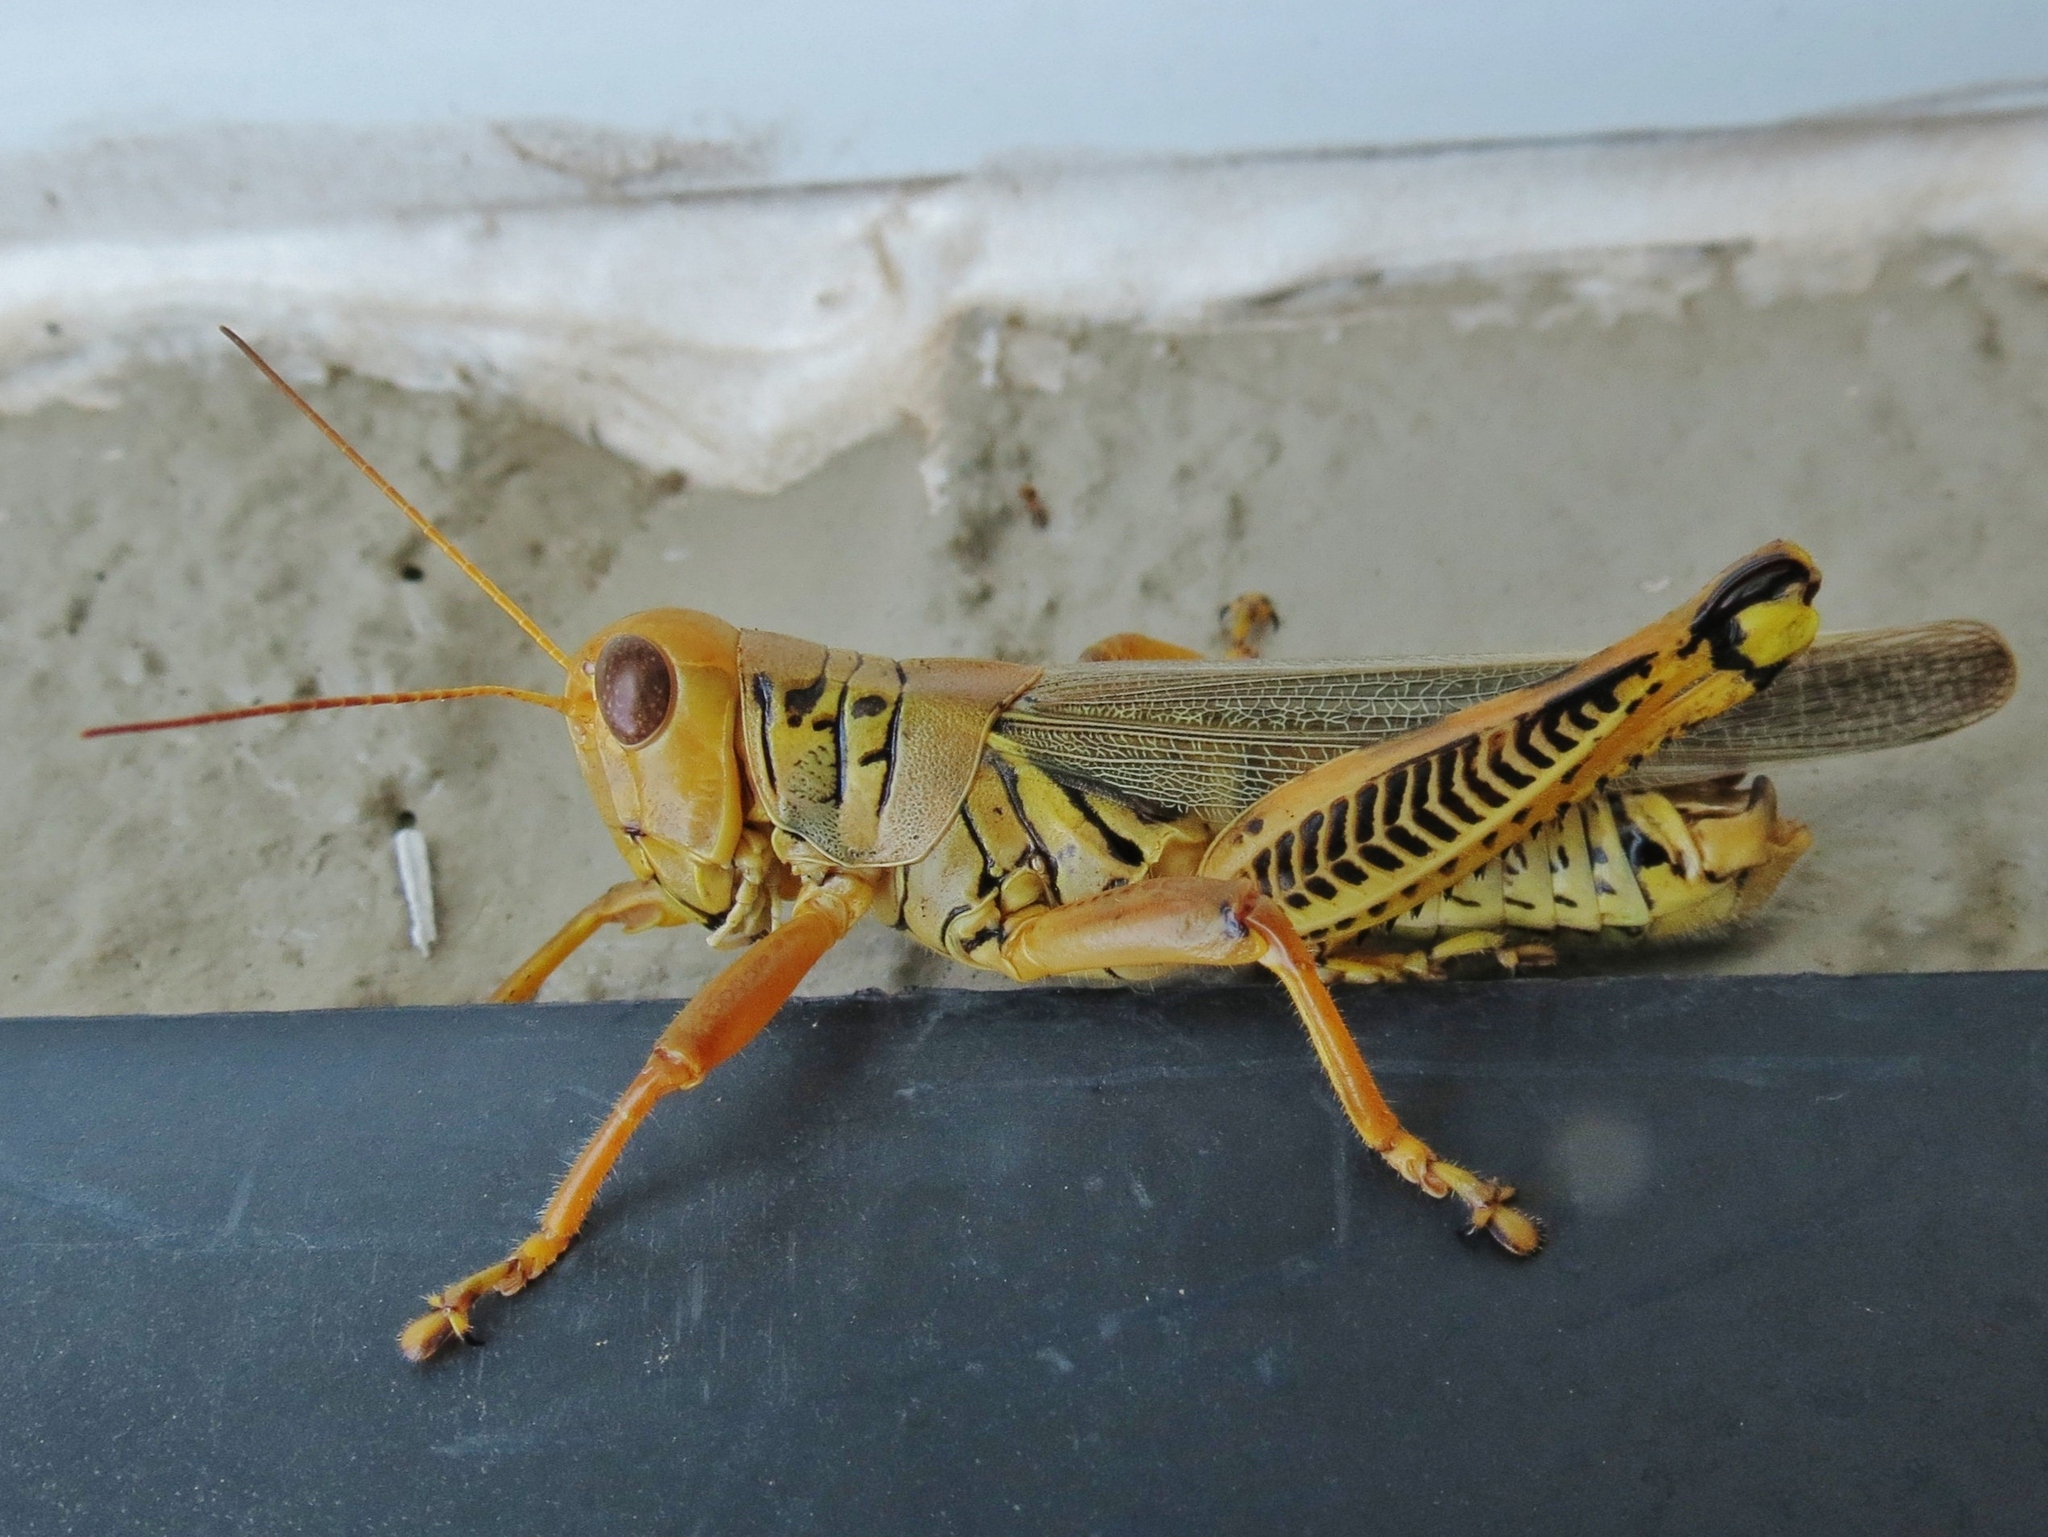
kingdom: Animalia
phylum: Arthropoda
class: Insecta
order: Orthoptera
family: Acrididae
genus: Melanoplus
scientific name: Melanoplus differentialis
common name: Differential grasshopper
